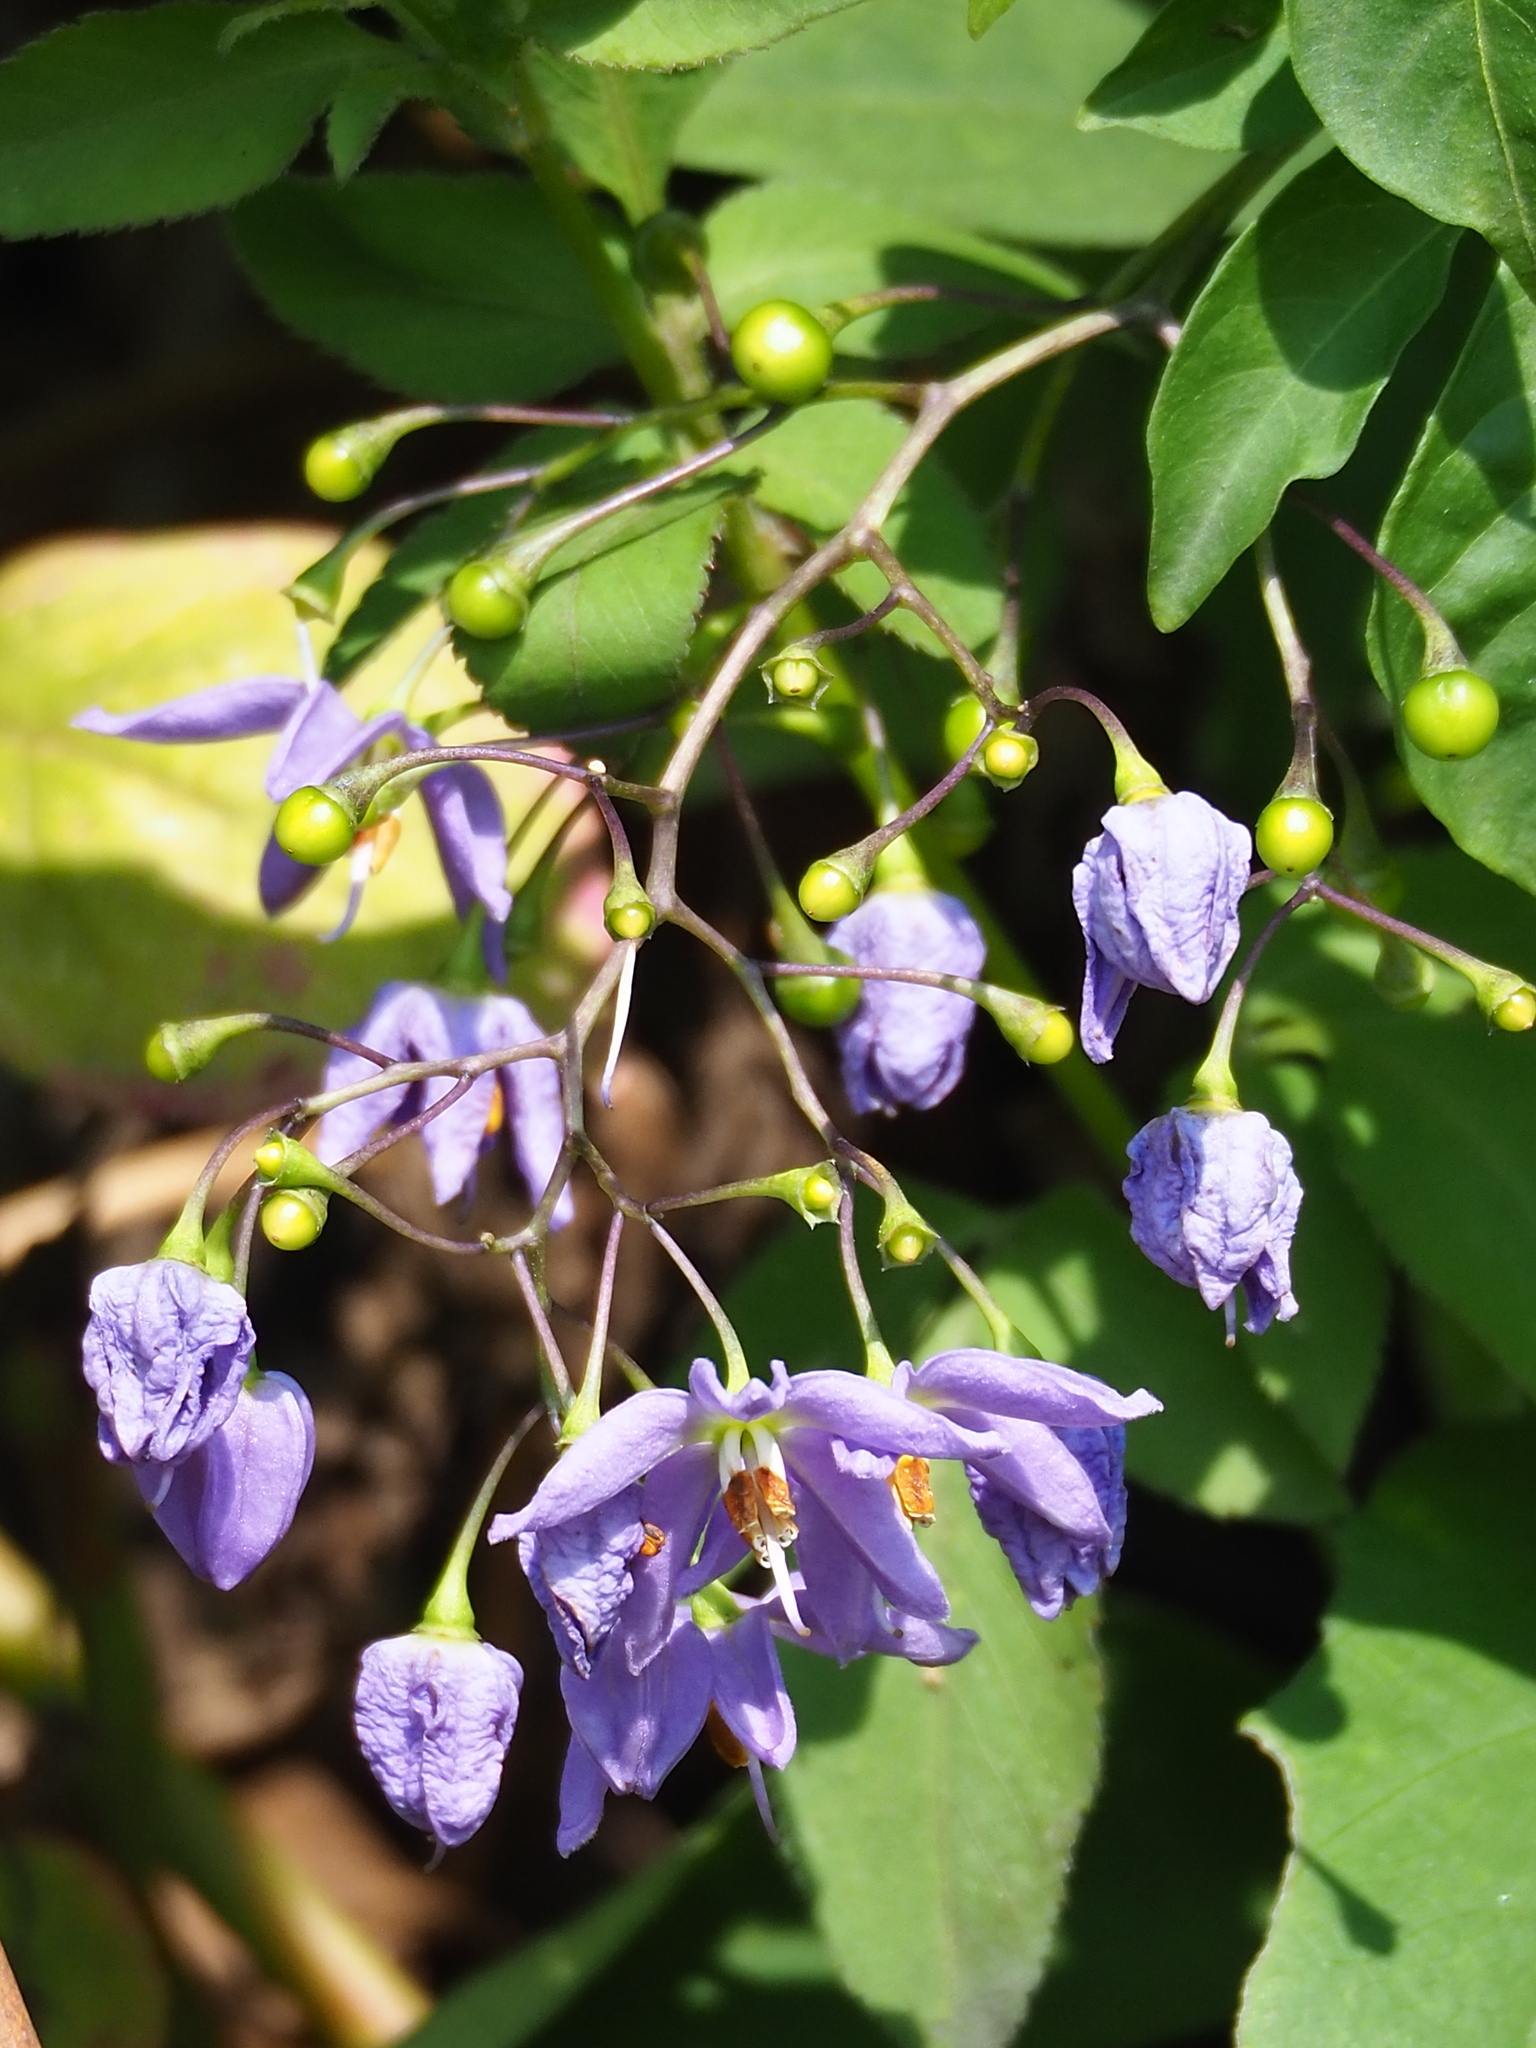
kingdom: Plantae
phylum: Tracheophyta
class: Magnoliopsida
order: Solanales
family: Solanaceae
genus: Solanum
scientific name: Solanum seaforthianum
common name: Brazilian nightshade
